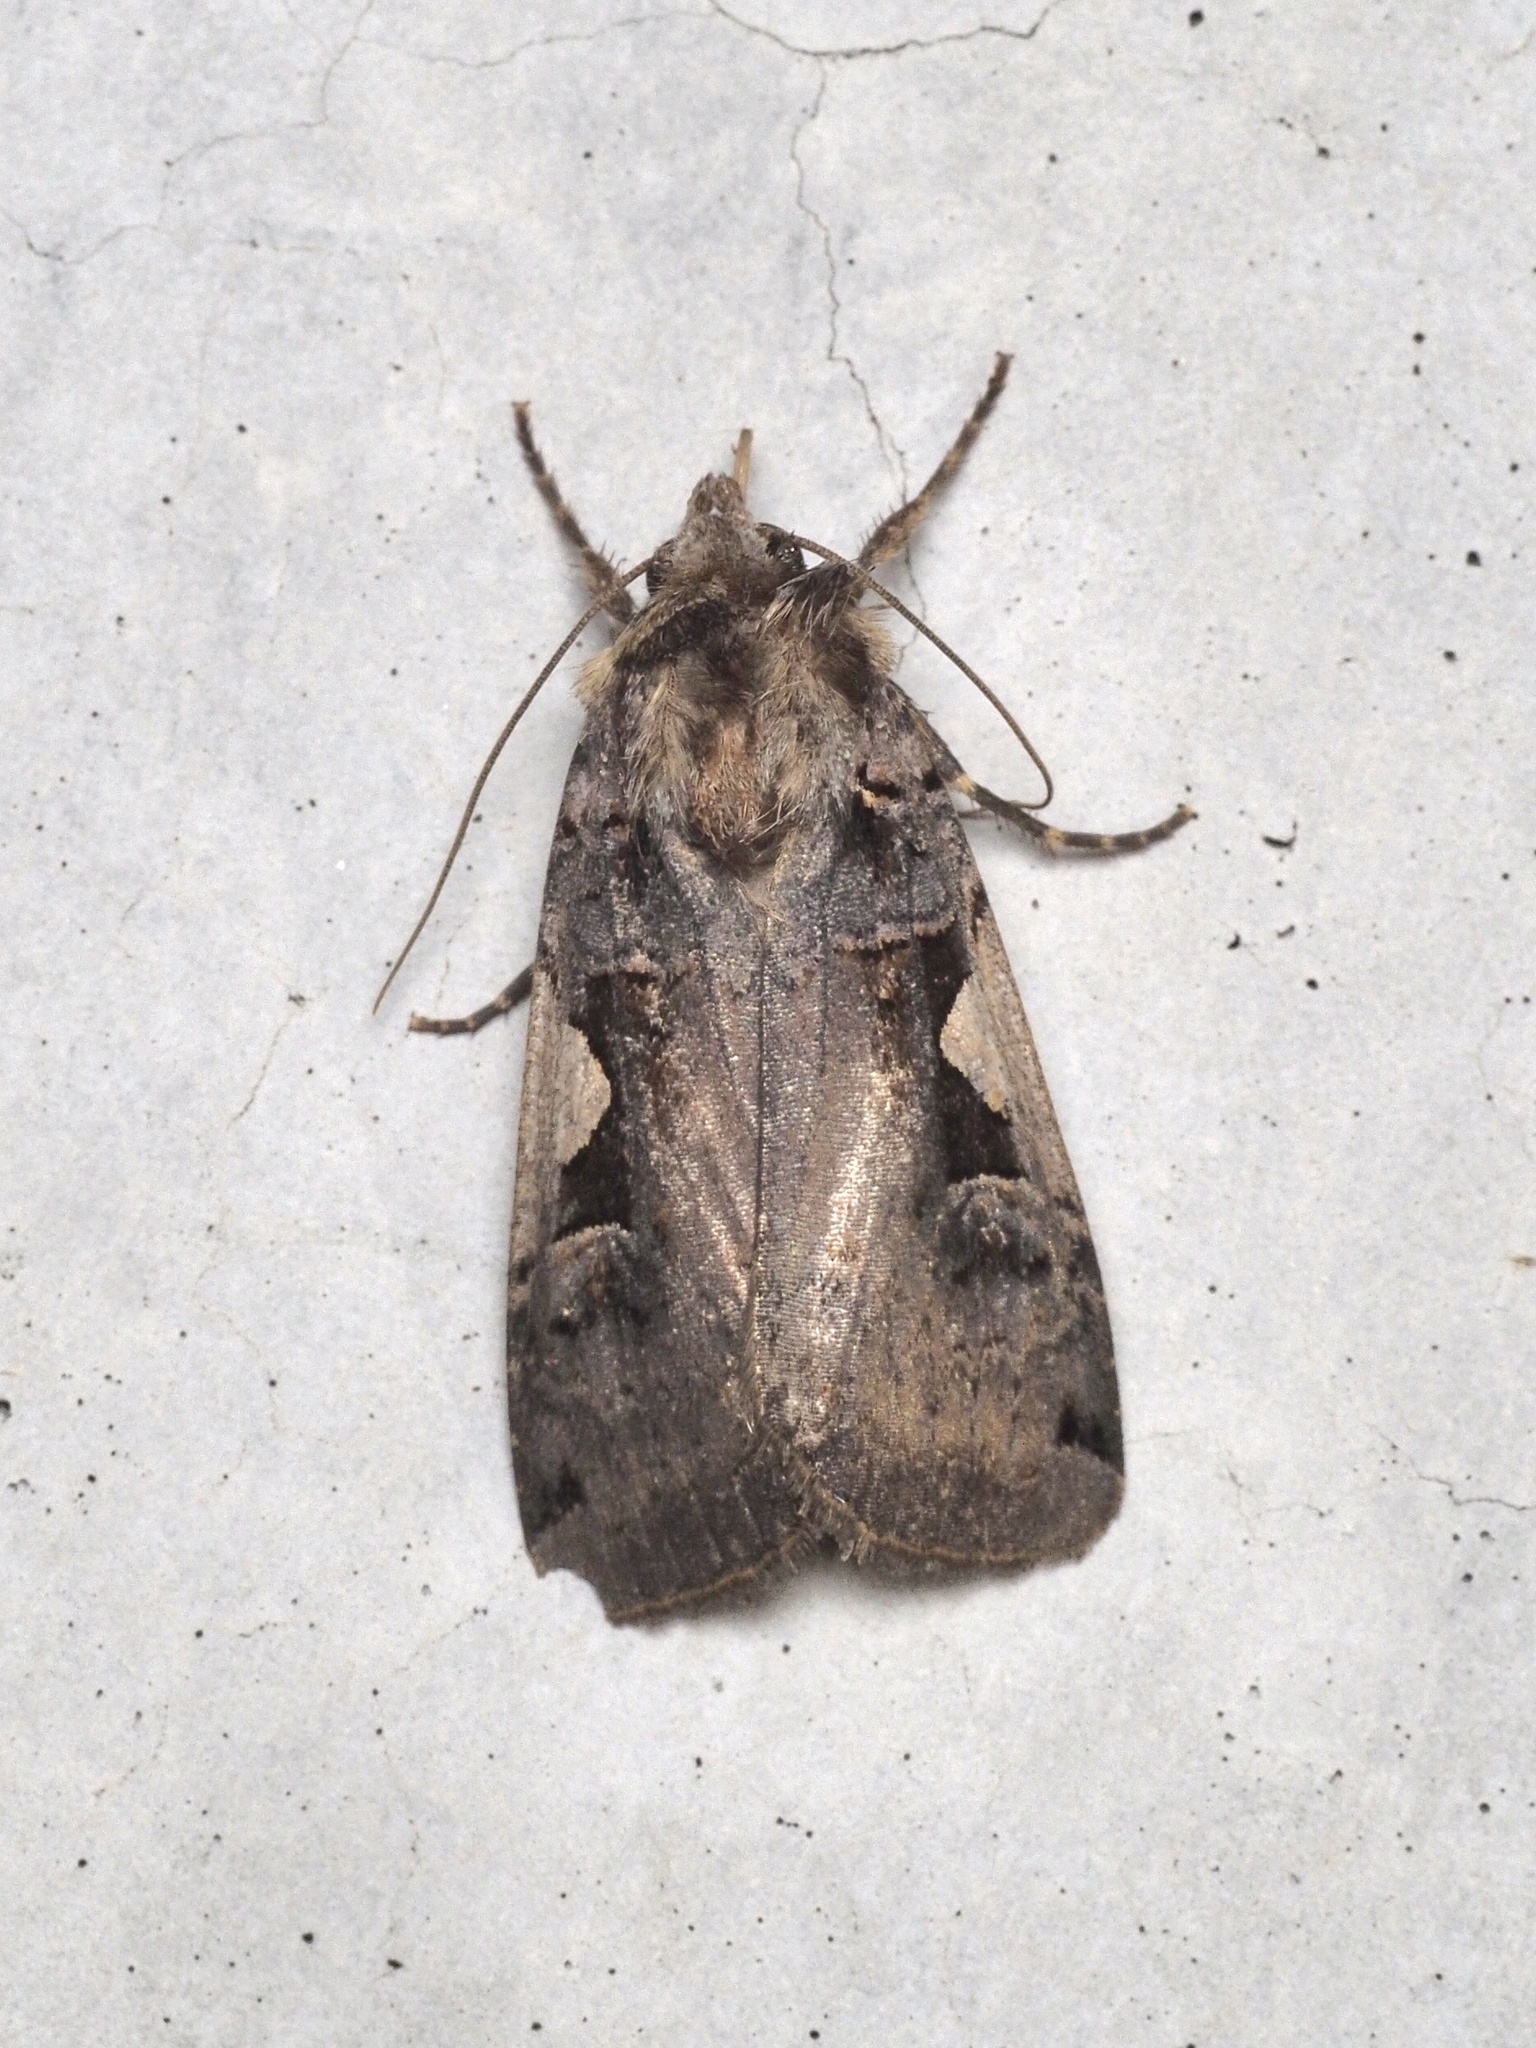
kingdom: Animalia
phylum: Arthropoda
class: Insecta
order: Lepidoptera
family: Noctuidae
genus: Xestia
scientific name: Xestia c-nigrum
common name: Setaceous hebrew character
